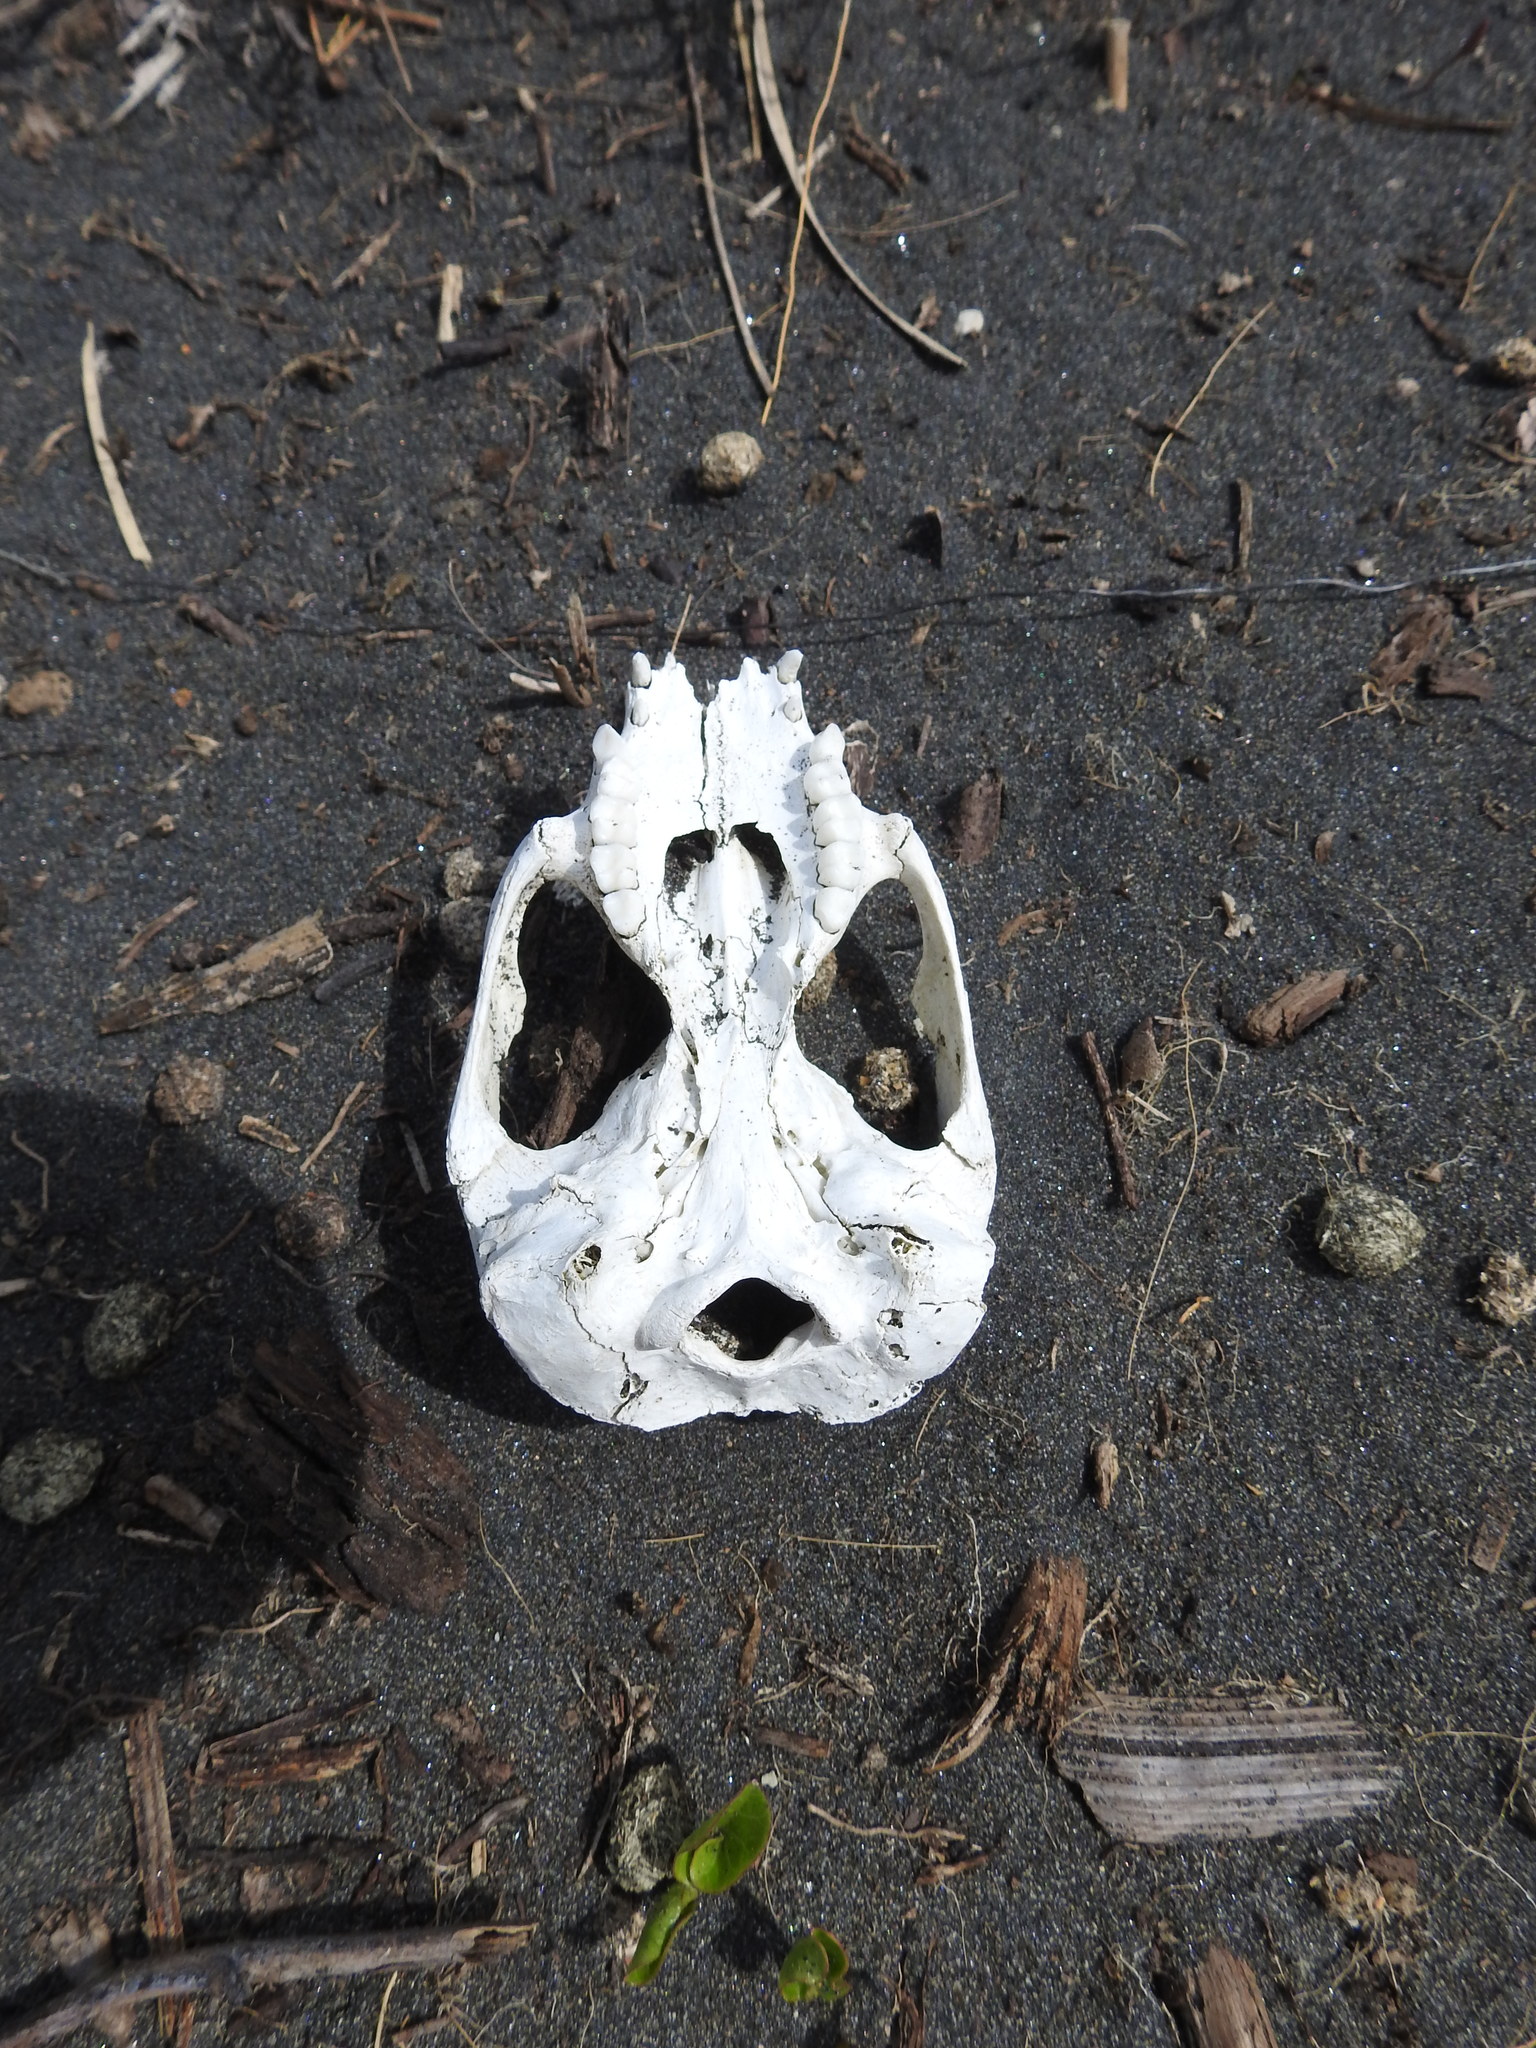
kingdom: Animalia
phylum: Chordata
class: Mammalia
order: Diprotodontia
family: Phalangeridae
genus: Trichosurus
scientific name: Trichosurus vulpecula
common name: Common brushtail
